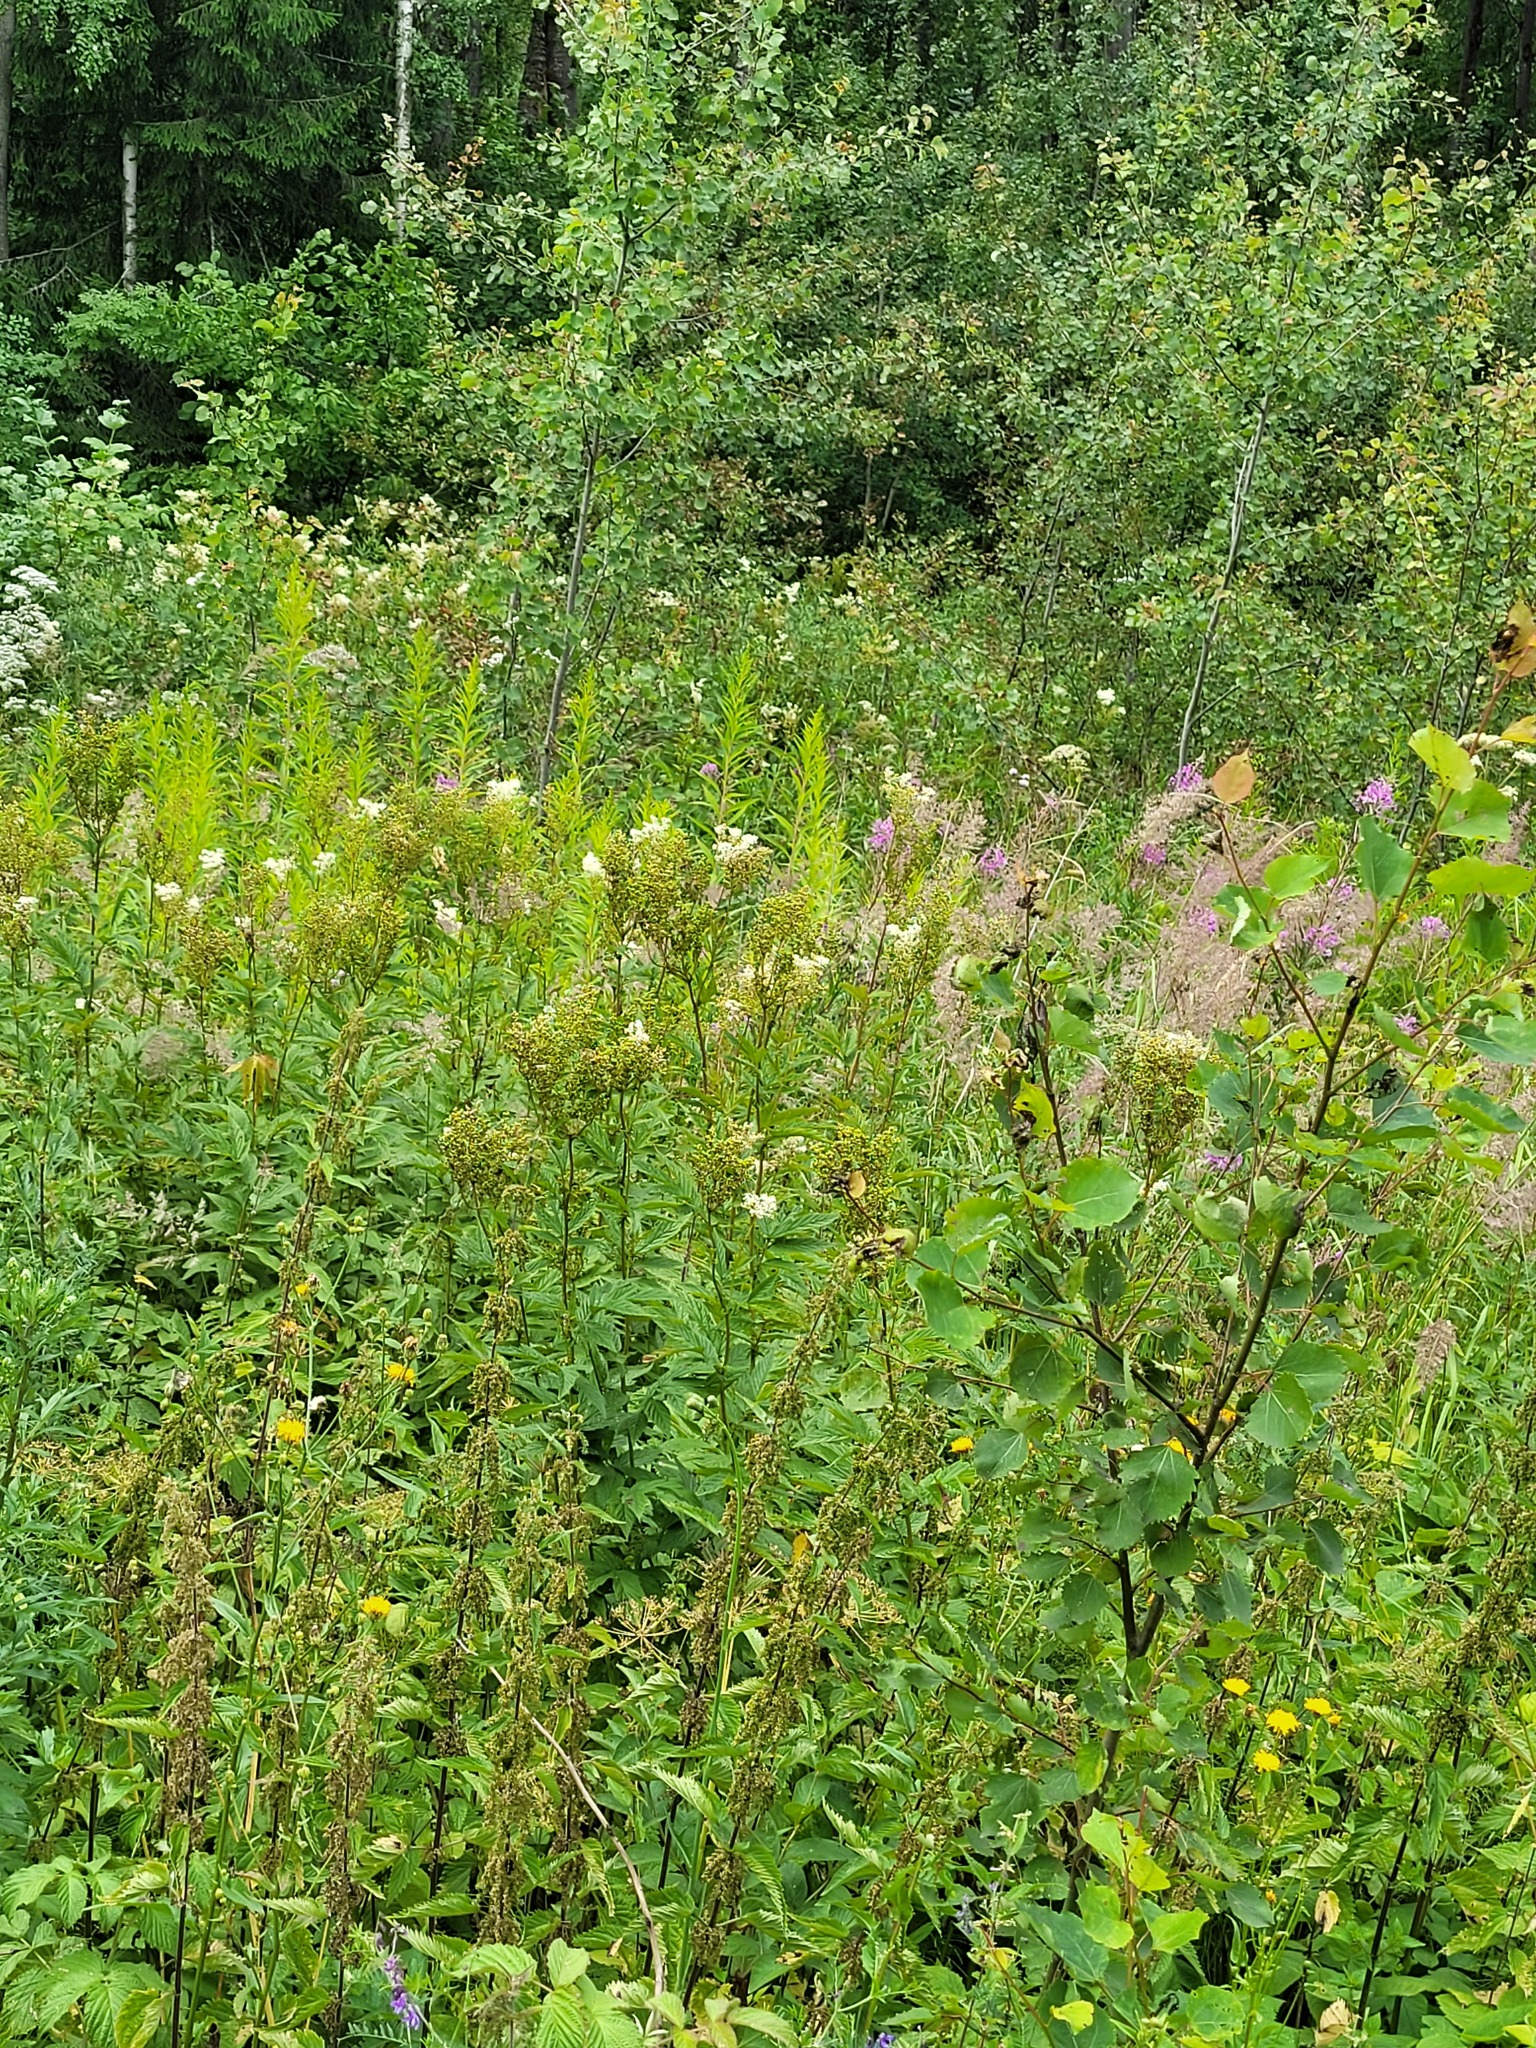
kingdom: Plantae
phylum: Tracheophyta
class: Magnoliopsida
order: Rosales
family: Rosaceae
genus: Filipendula
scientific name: Filipendula ulmaria
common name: Meadowsweet
